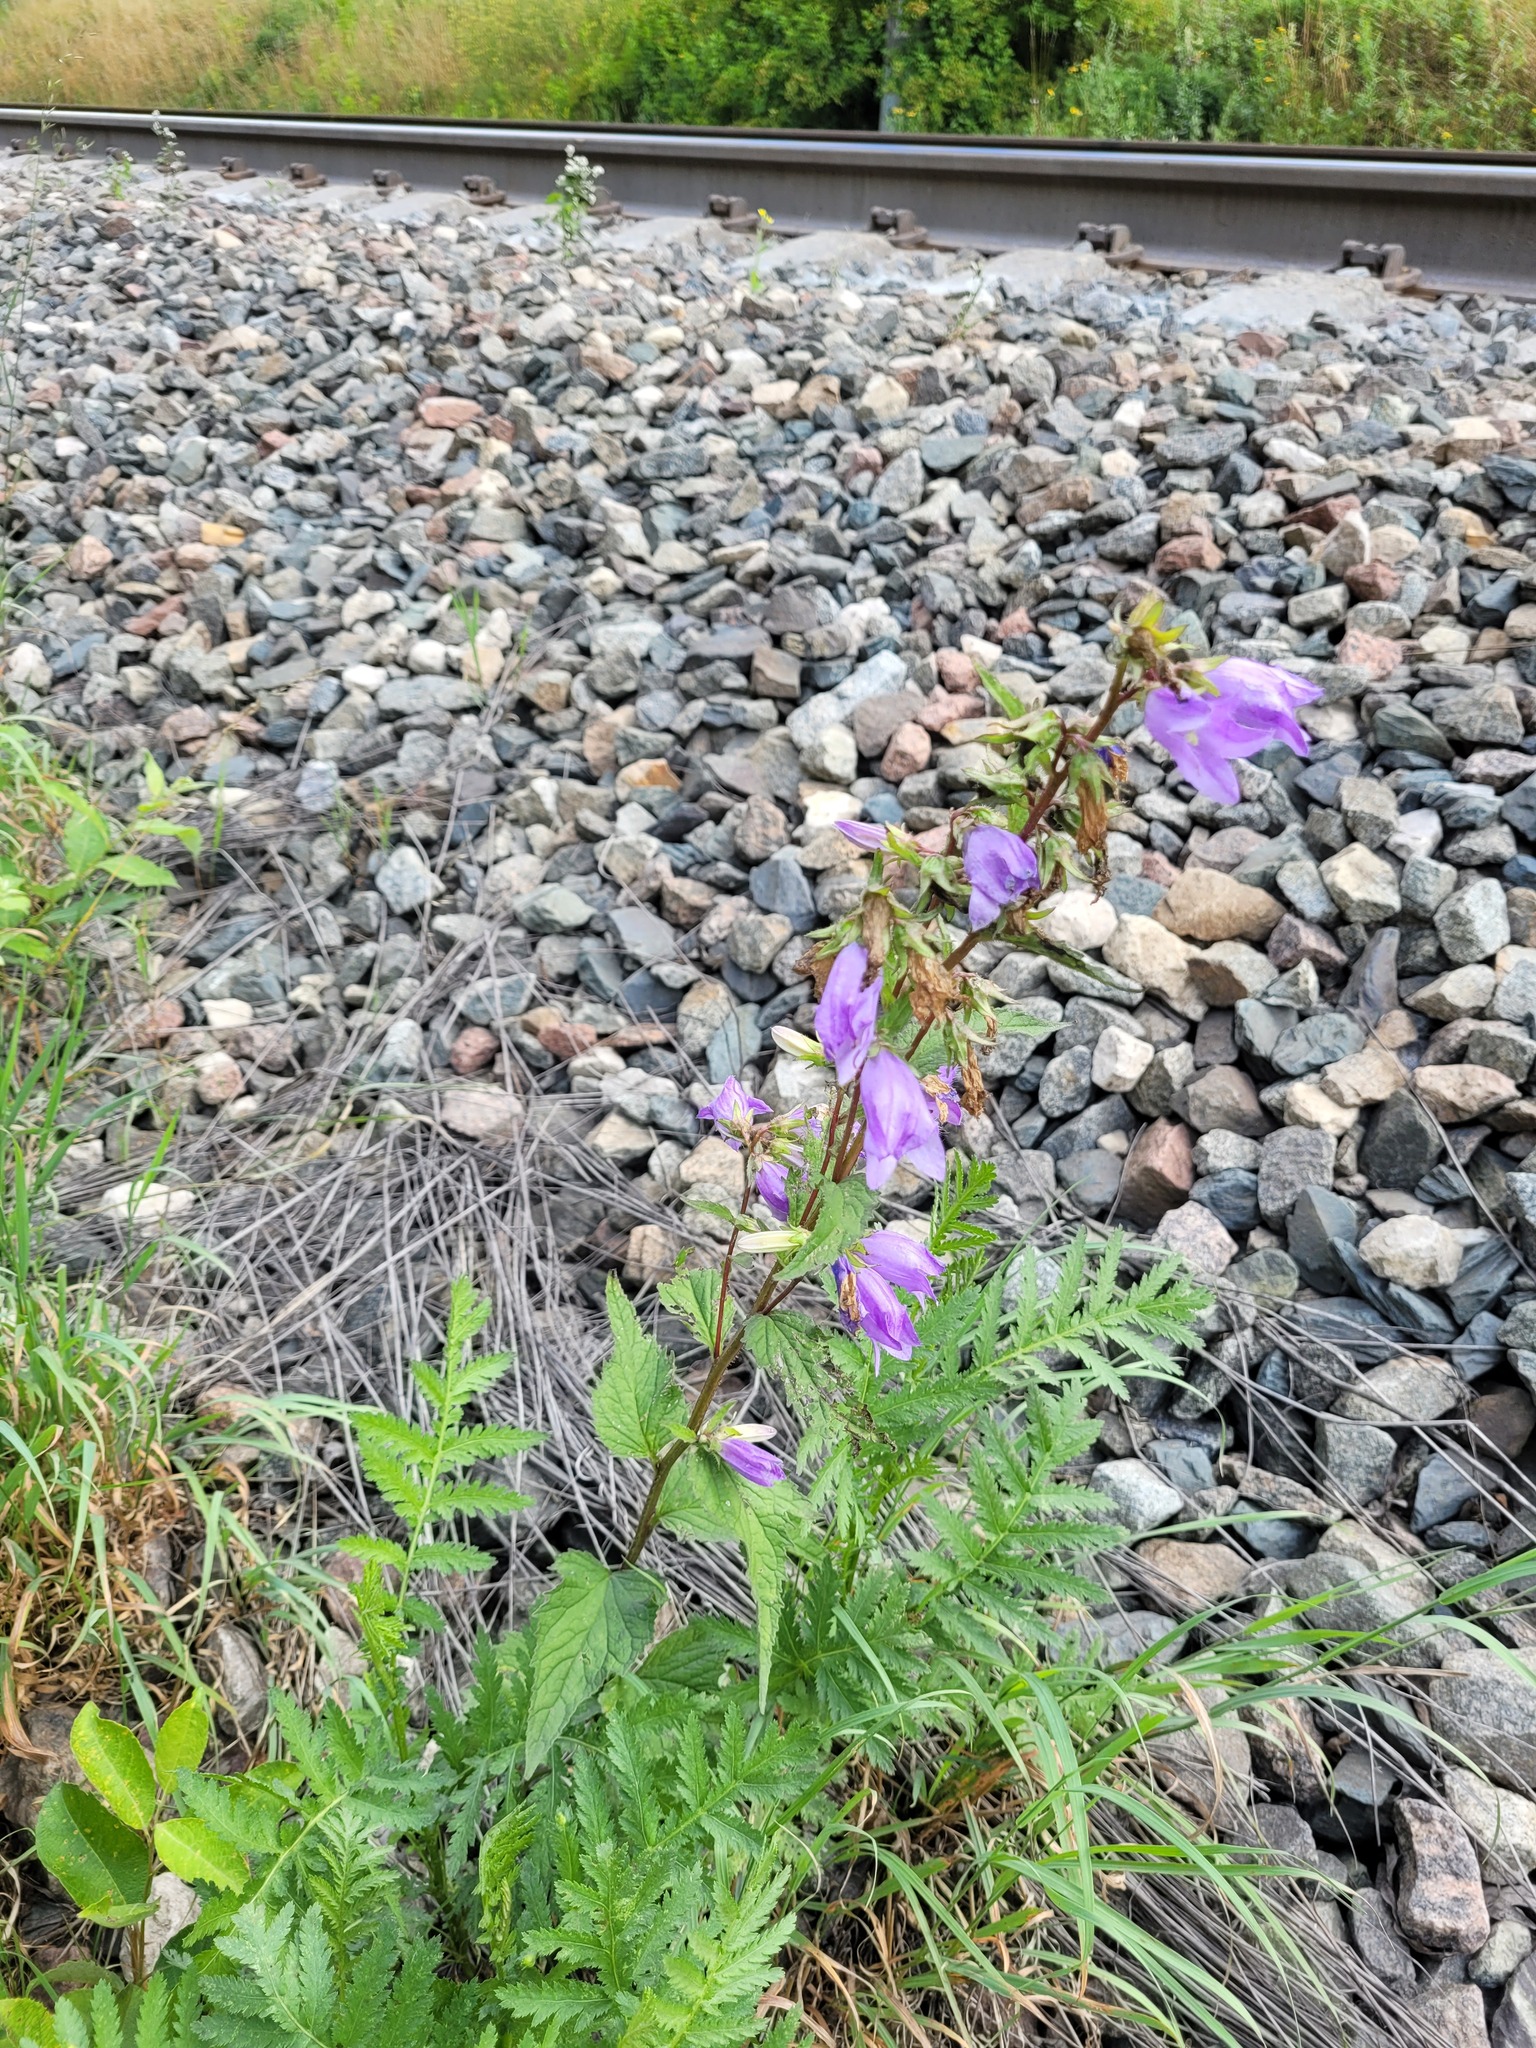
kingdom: Plantae
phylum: Tracheophyta
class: Magnoliopsida
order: Asterales
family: Campanulaceae
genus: Campanula
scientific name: Campanula trachelium
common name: Nettle-leaved bellflower
